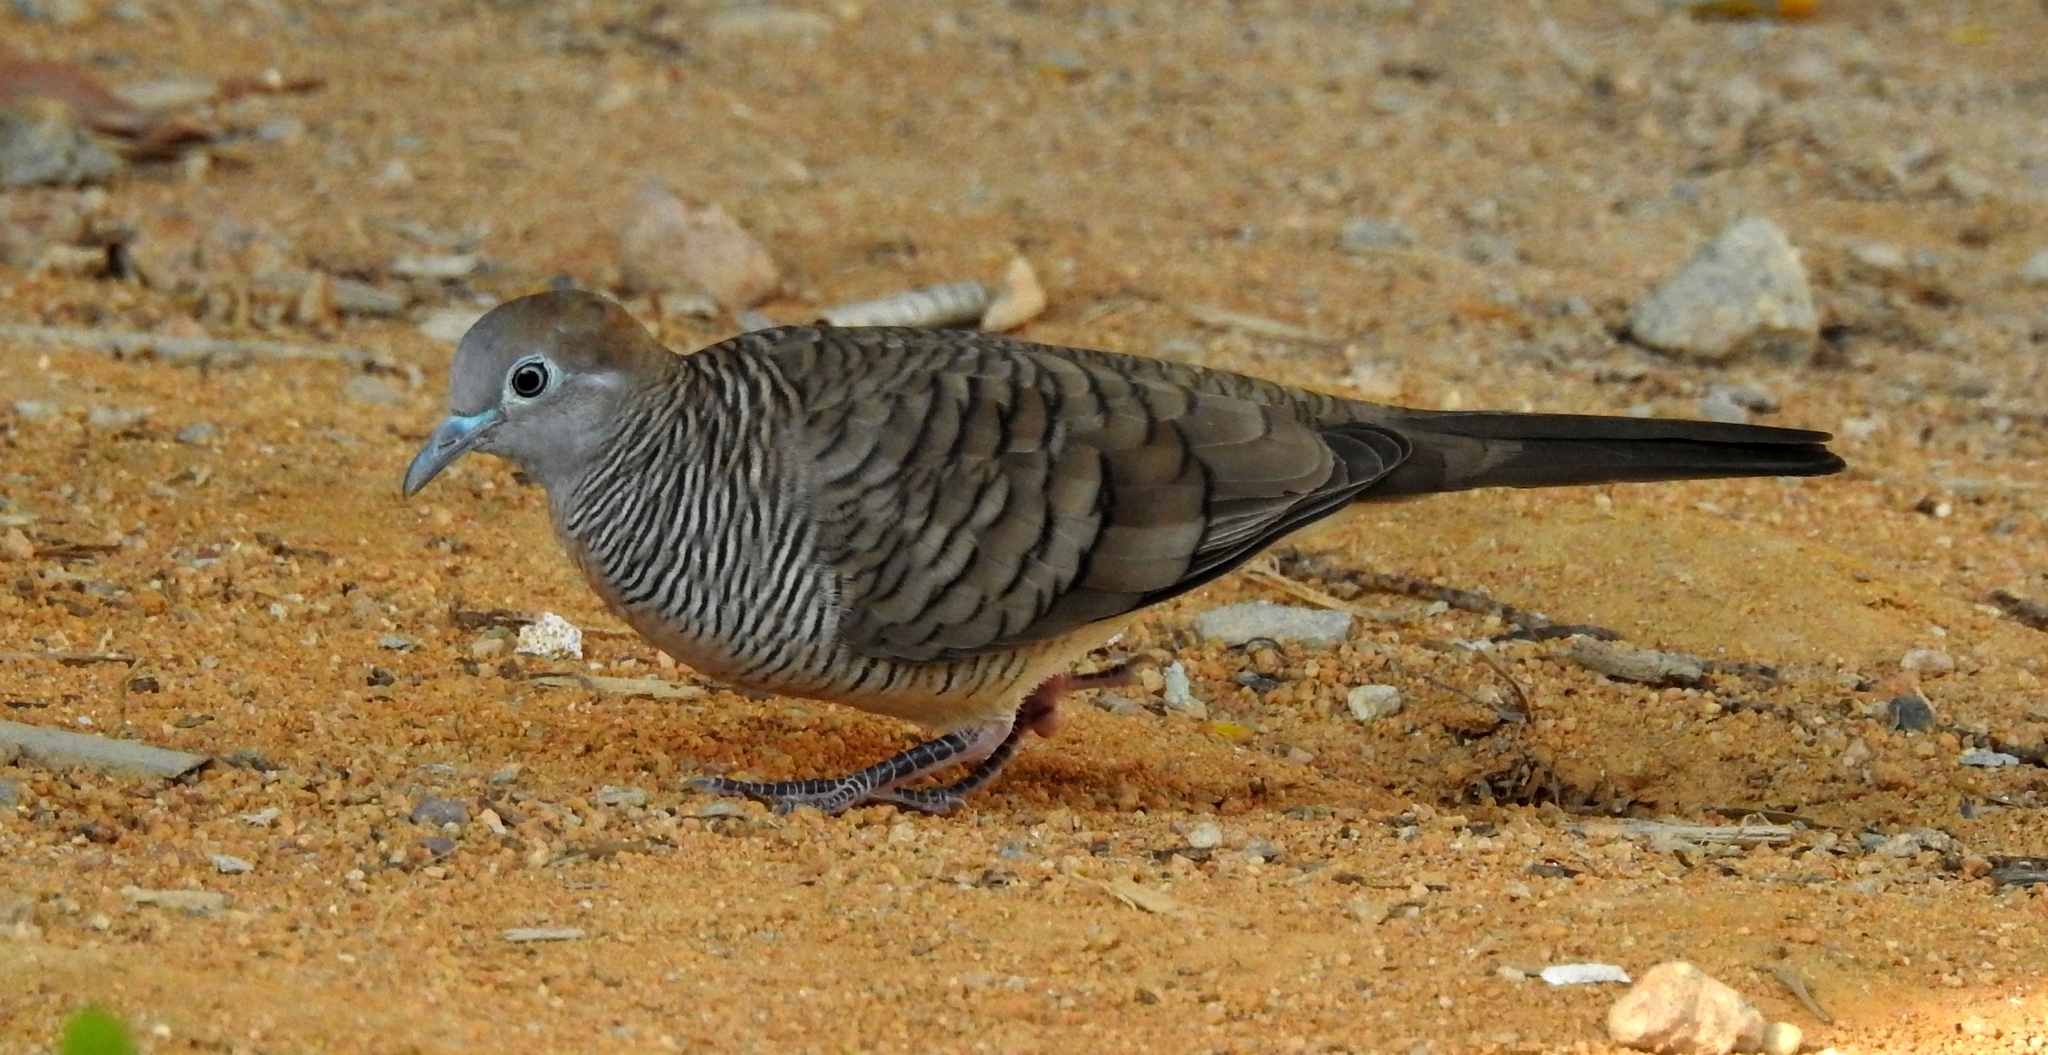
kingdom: Animalia
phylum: Chordata
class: Aves
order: Columbiformes
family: Columbidae
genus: Geopelia
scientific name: Geopelia striata
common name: Zebra dove
